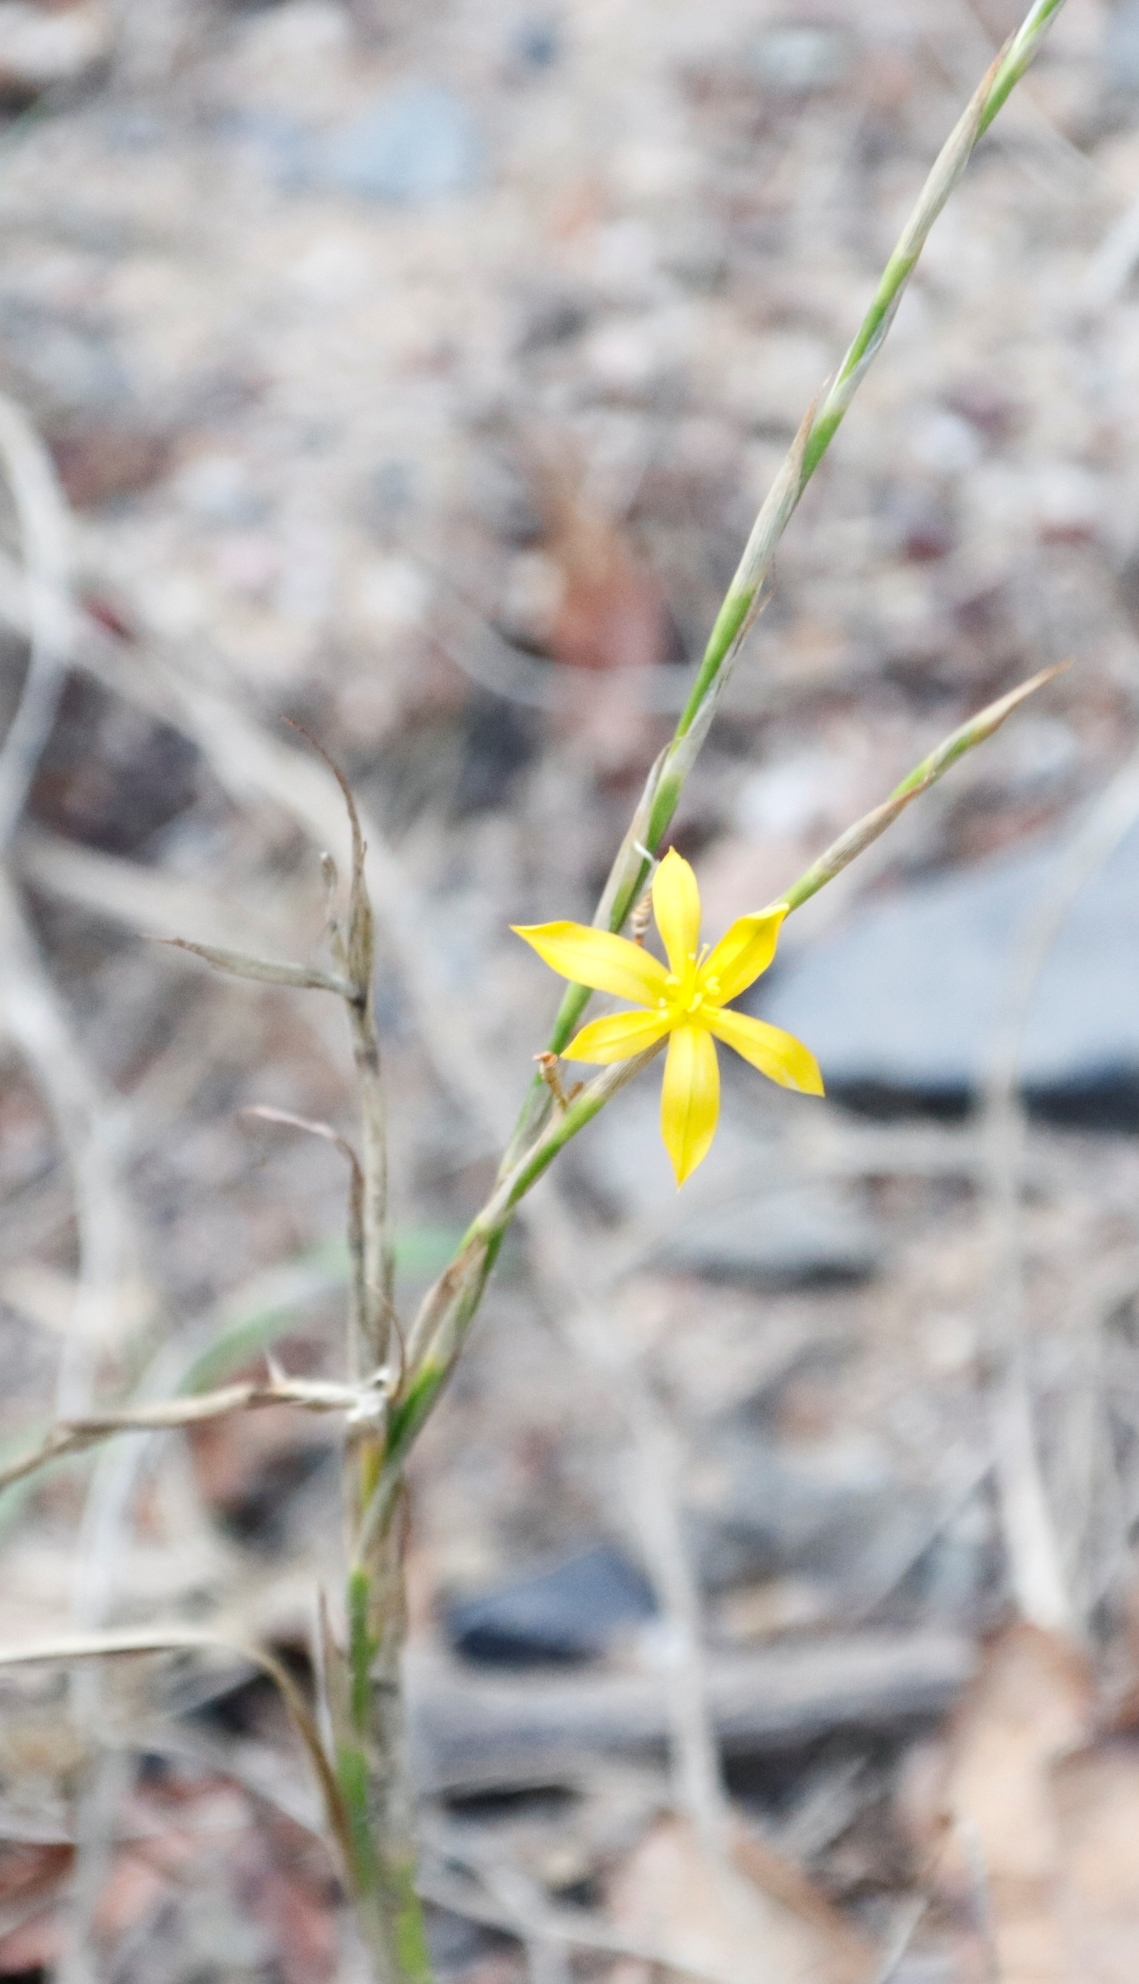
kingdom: Plantae
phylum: Tracheophyta
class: Liliopsida
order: Asparagales
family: Iridaceae
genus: Moraea
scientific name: Moraea virgata
